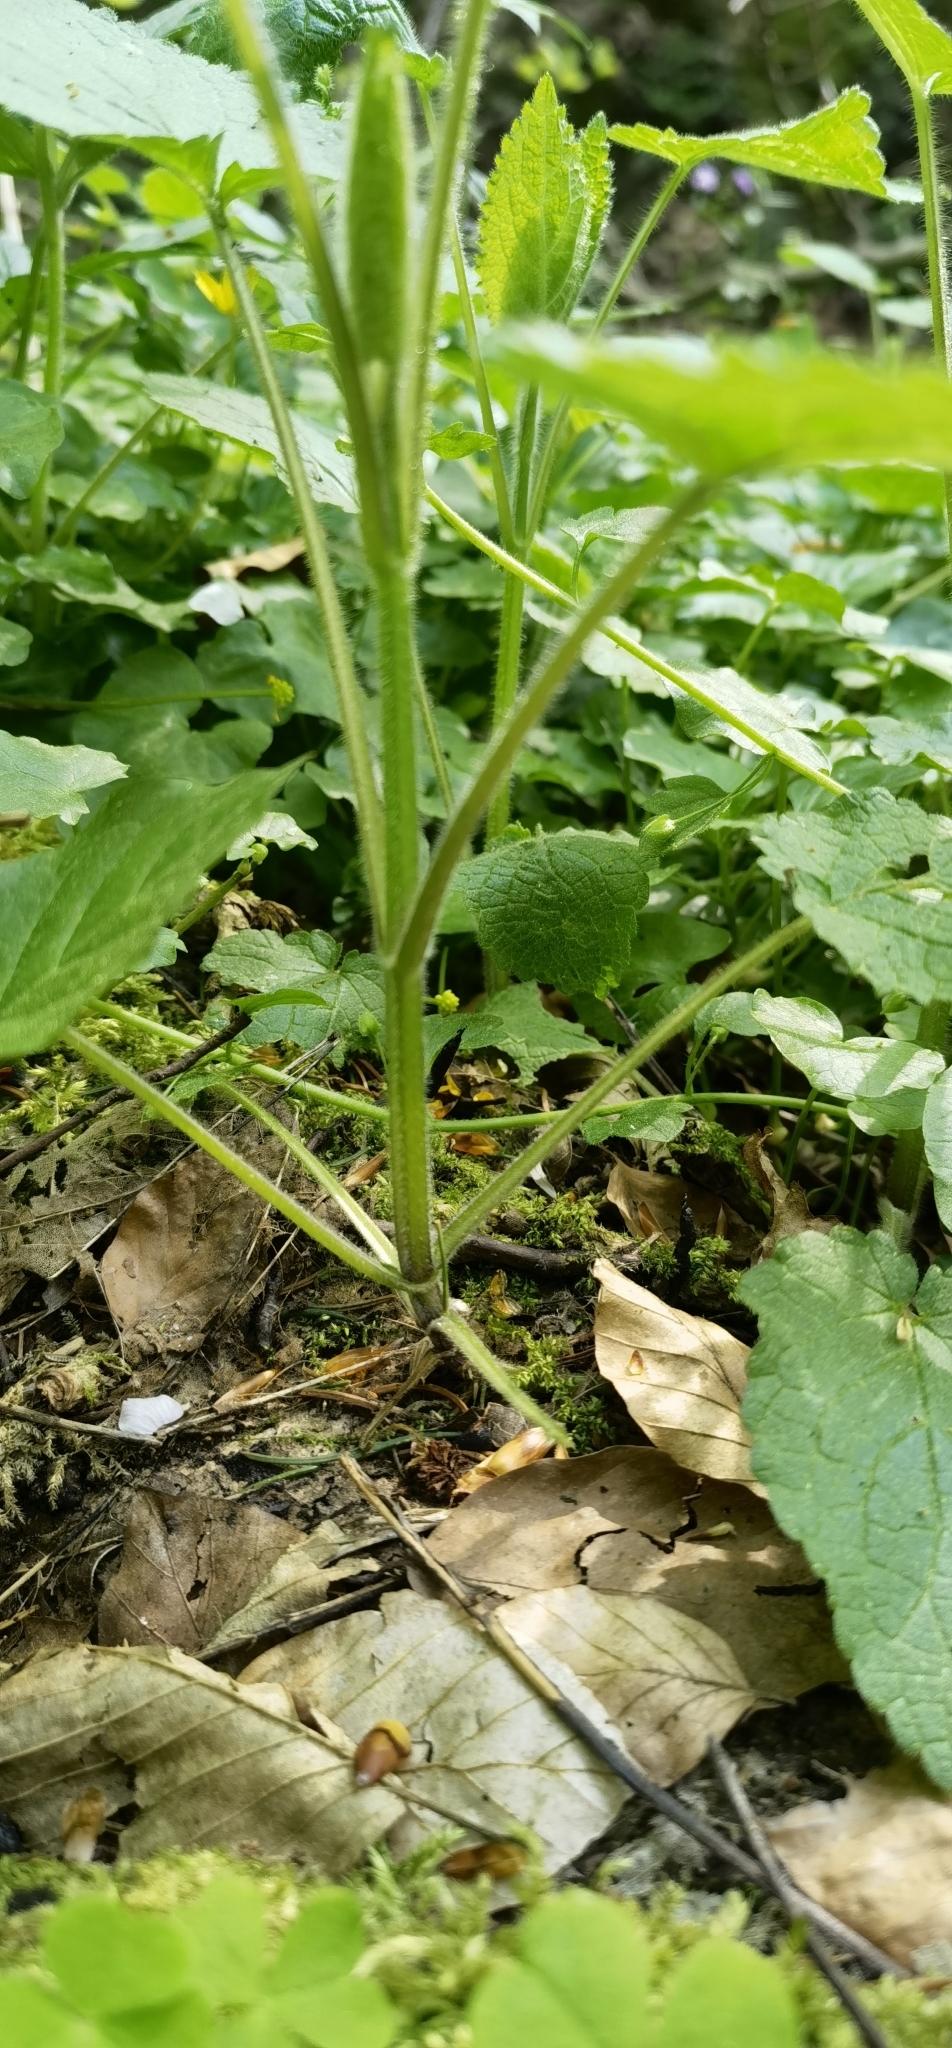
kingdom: Plantae
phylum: Tracheophyta
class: Magnoliopsida
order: Lamiales
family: Lamiaceae
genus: Stachys
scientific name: Stachys sylvatica
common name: Hedge woundwort
